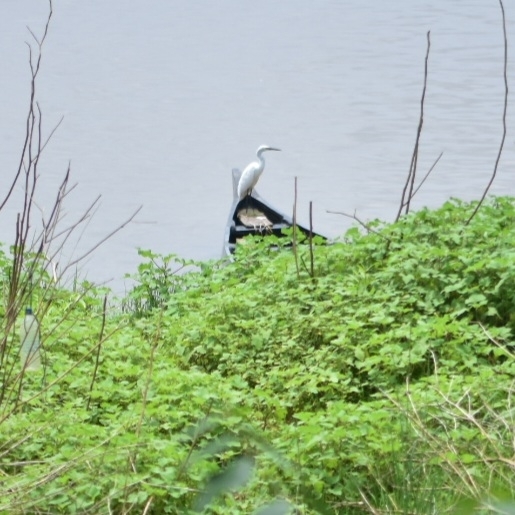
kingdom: Animalia
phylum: Chordata
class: Aves
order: Pelecaniformes
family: Ardeidae
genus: Egretta
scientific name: Egretta garzetta
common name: Little egret
